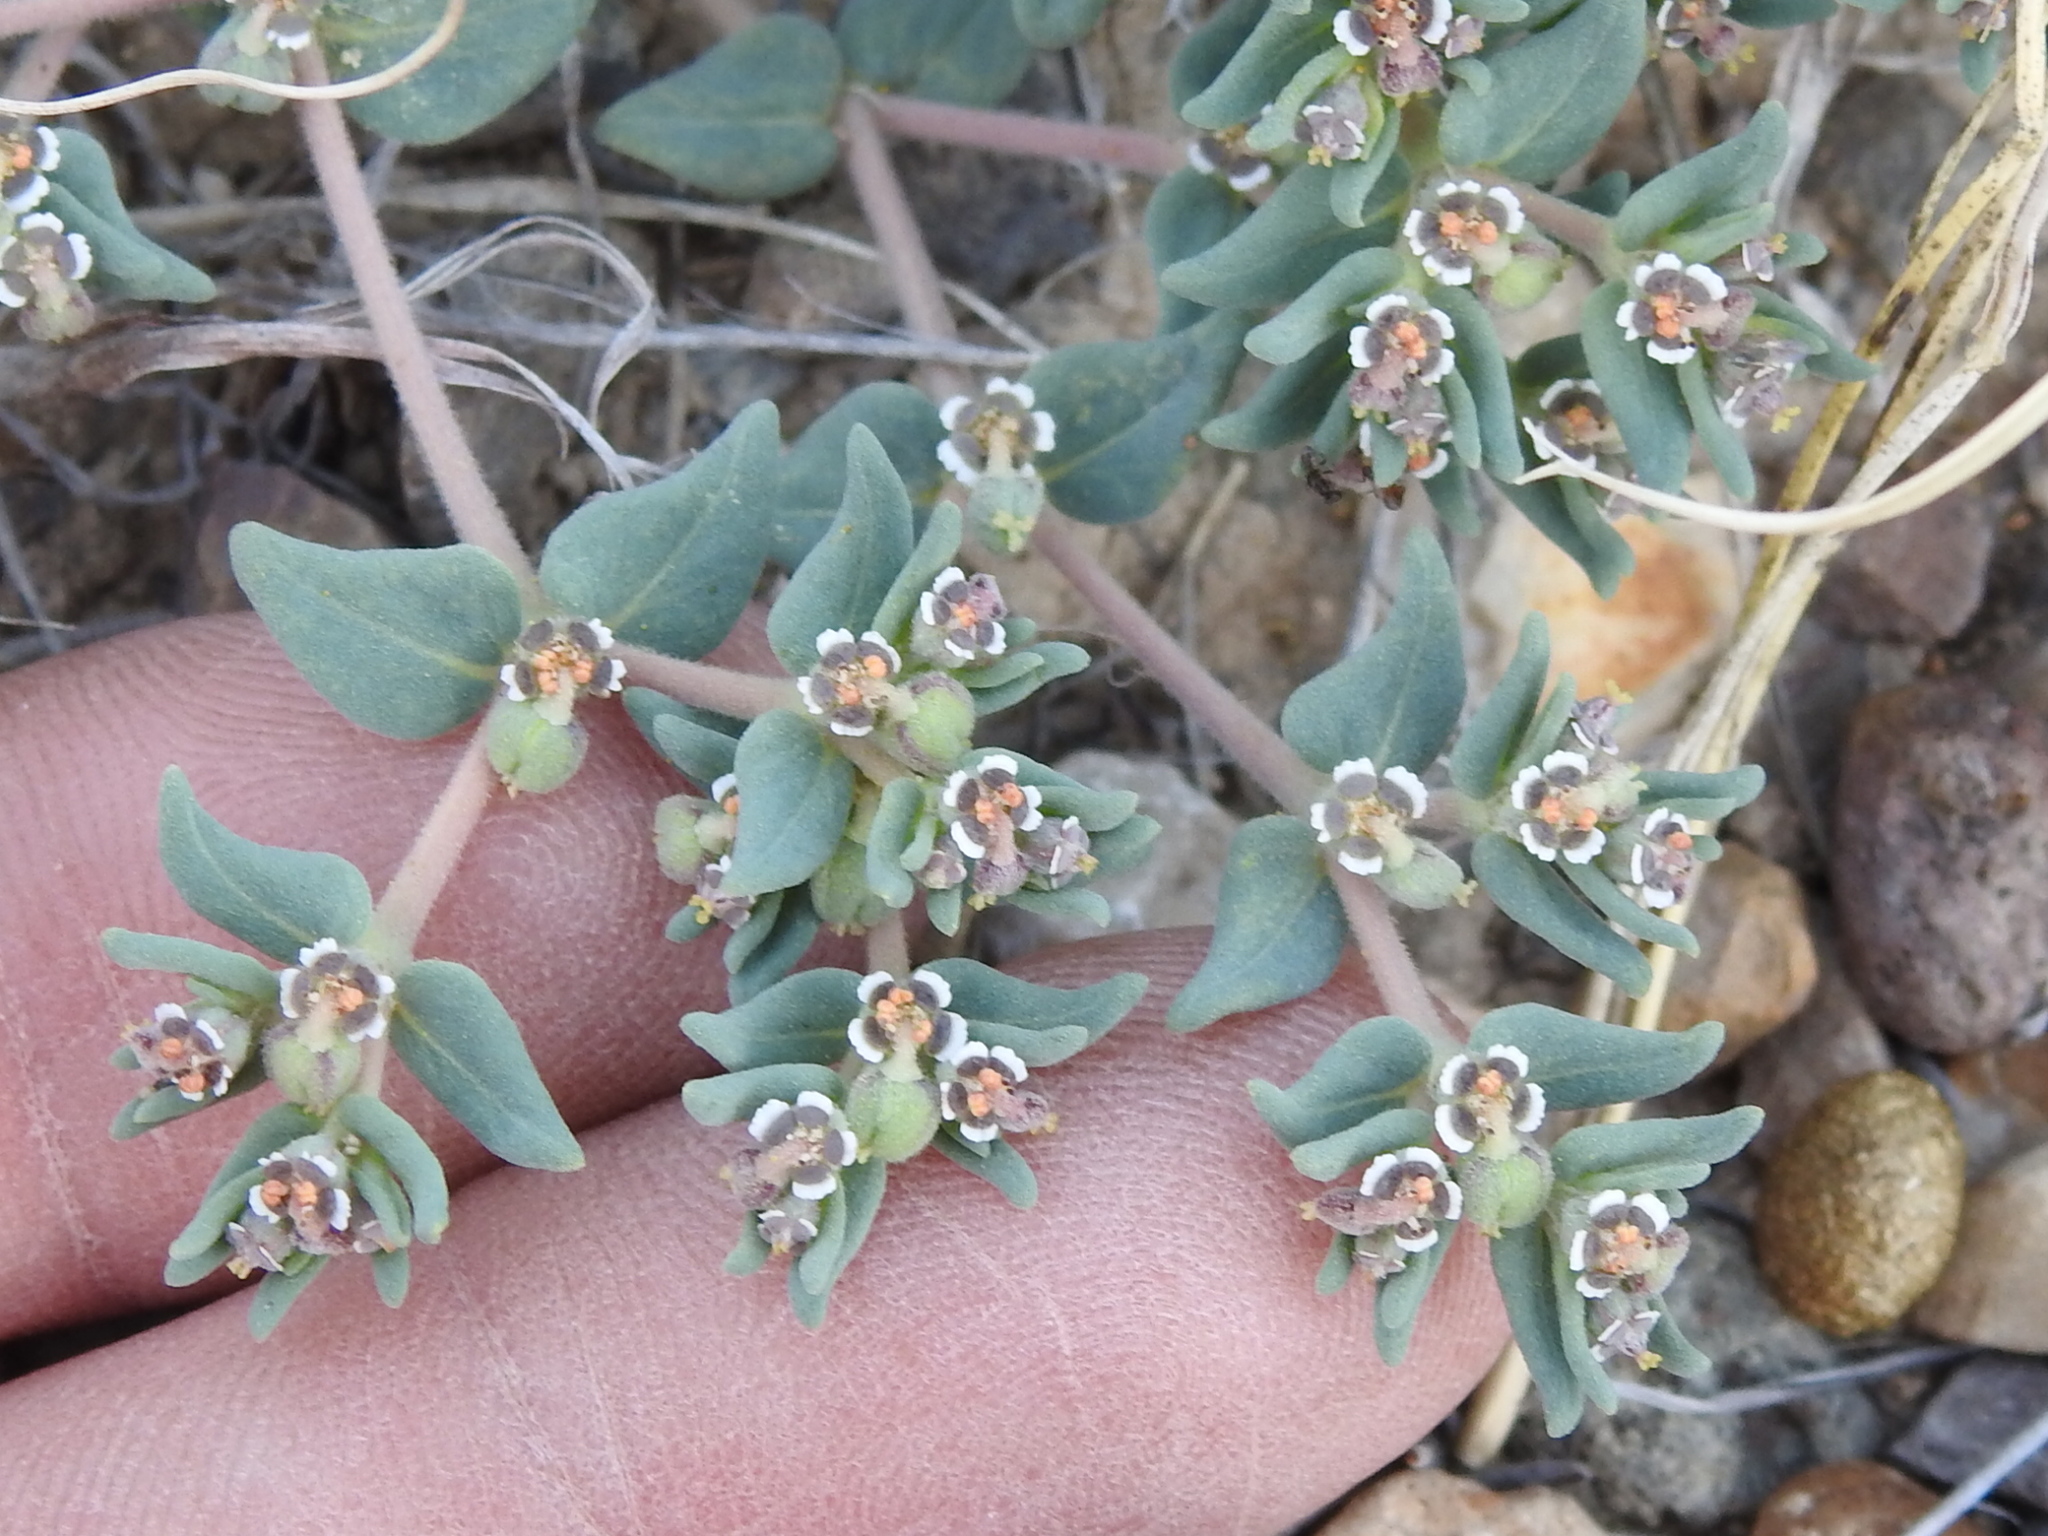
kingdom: Plantae
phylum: Tracheophyta
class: Magnoliopsida
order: Malpighiales
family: Euphorbiaceae
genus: Euphorbia
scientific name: Euphorbia lata
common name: Hoary euphorbia
